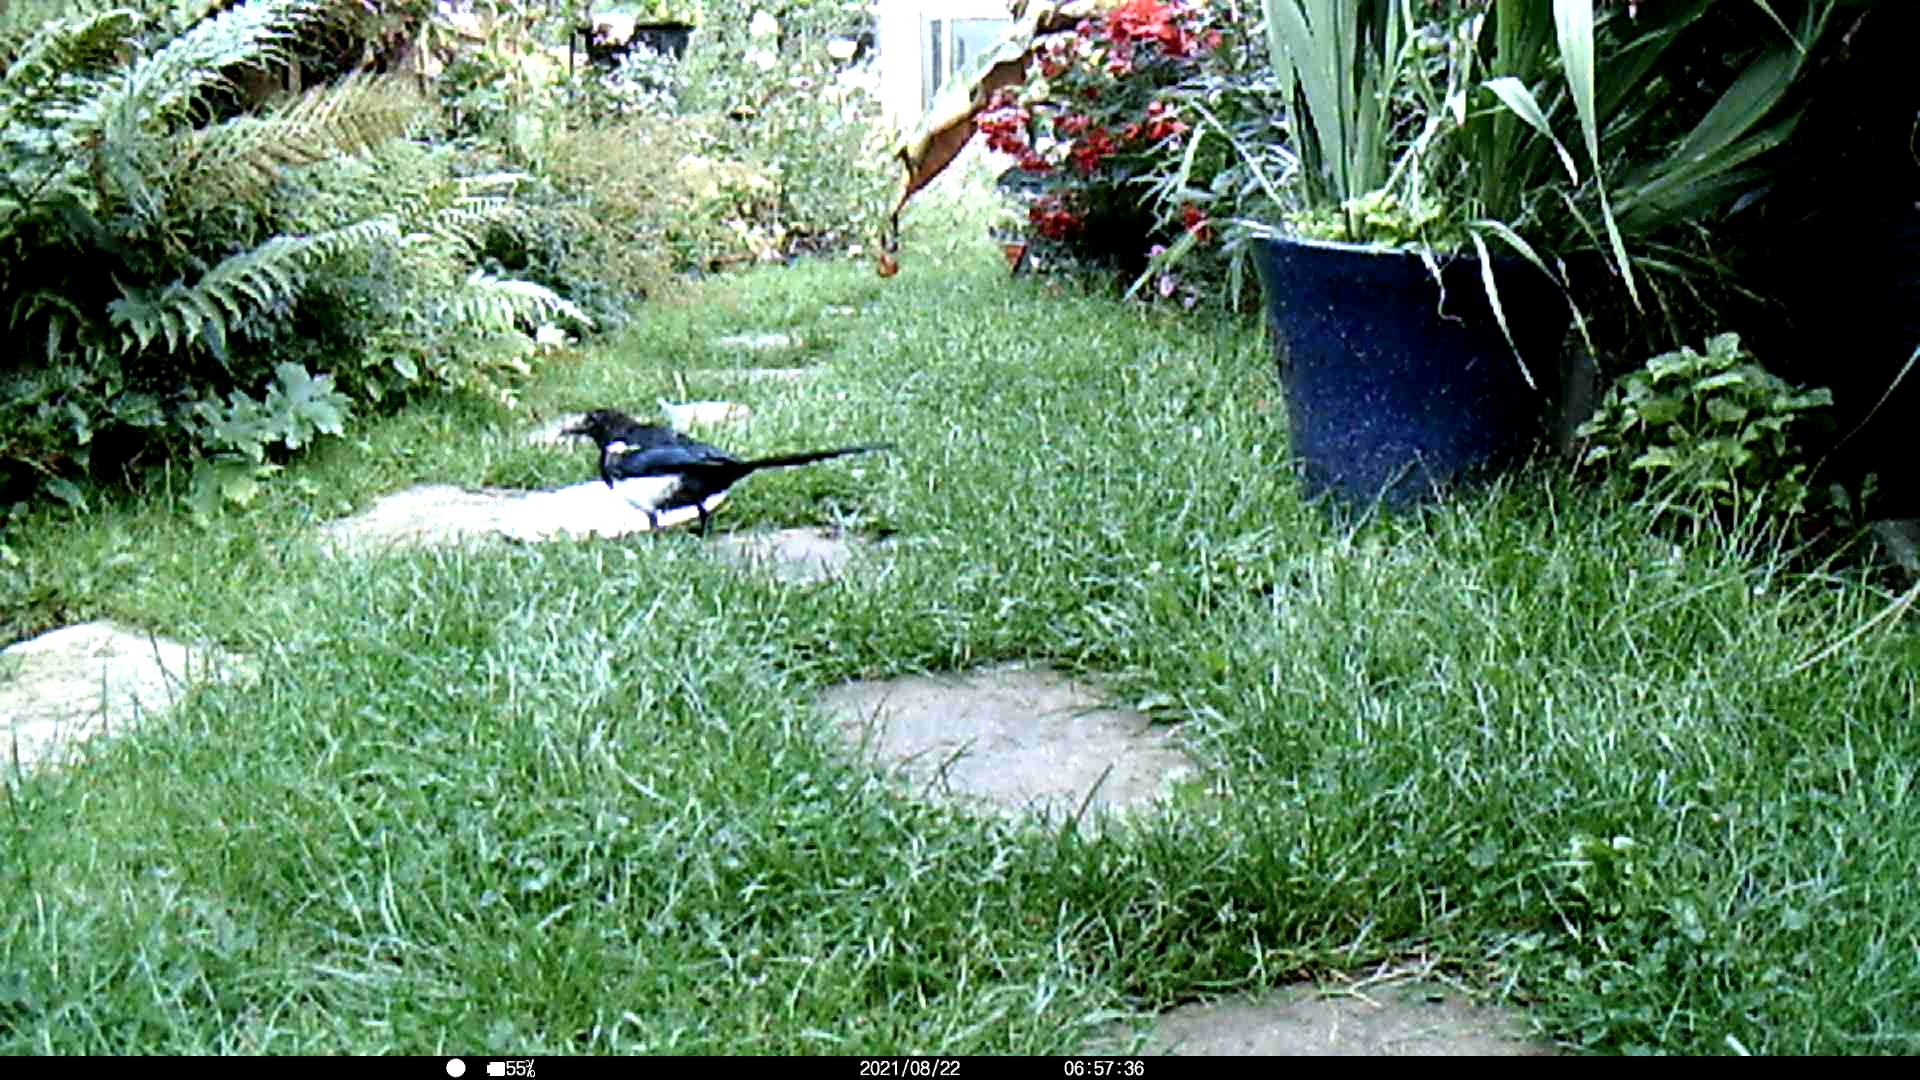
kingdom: Animalia
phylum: Chordata
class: Aves
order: Passeriformes
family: Corvidae
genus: Pica
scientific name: Pica pica
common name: Eurasian magpie
